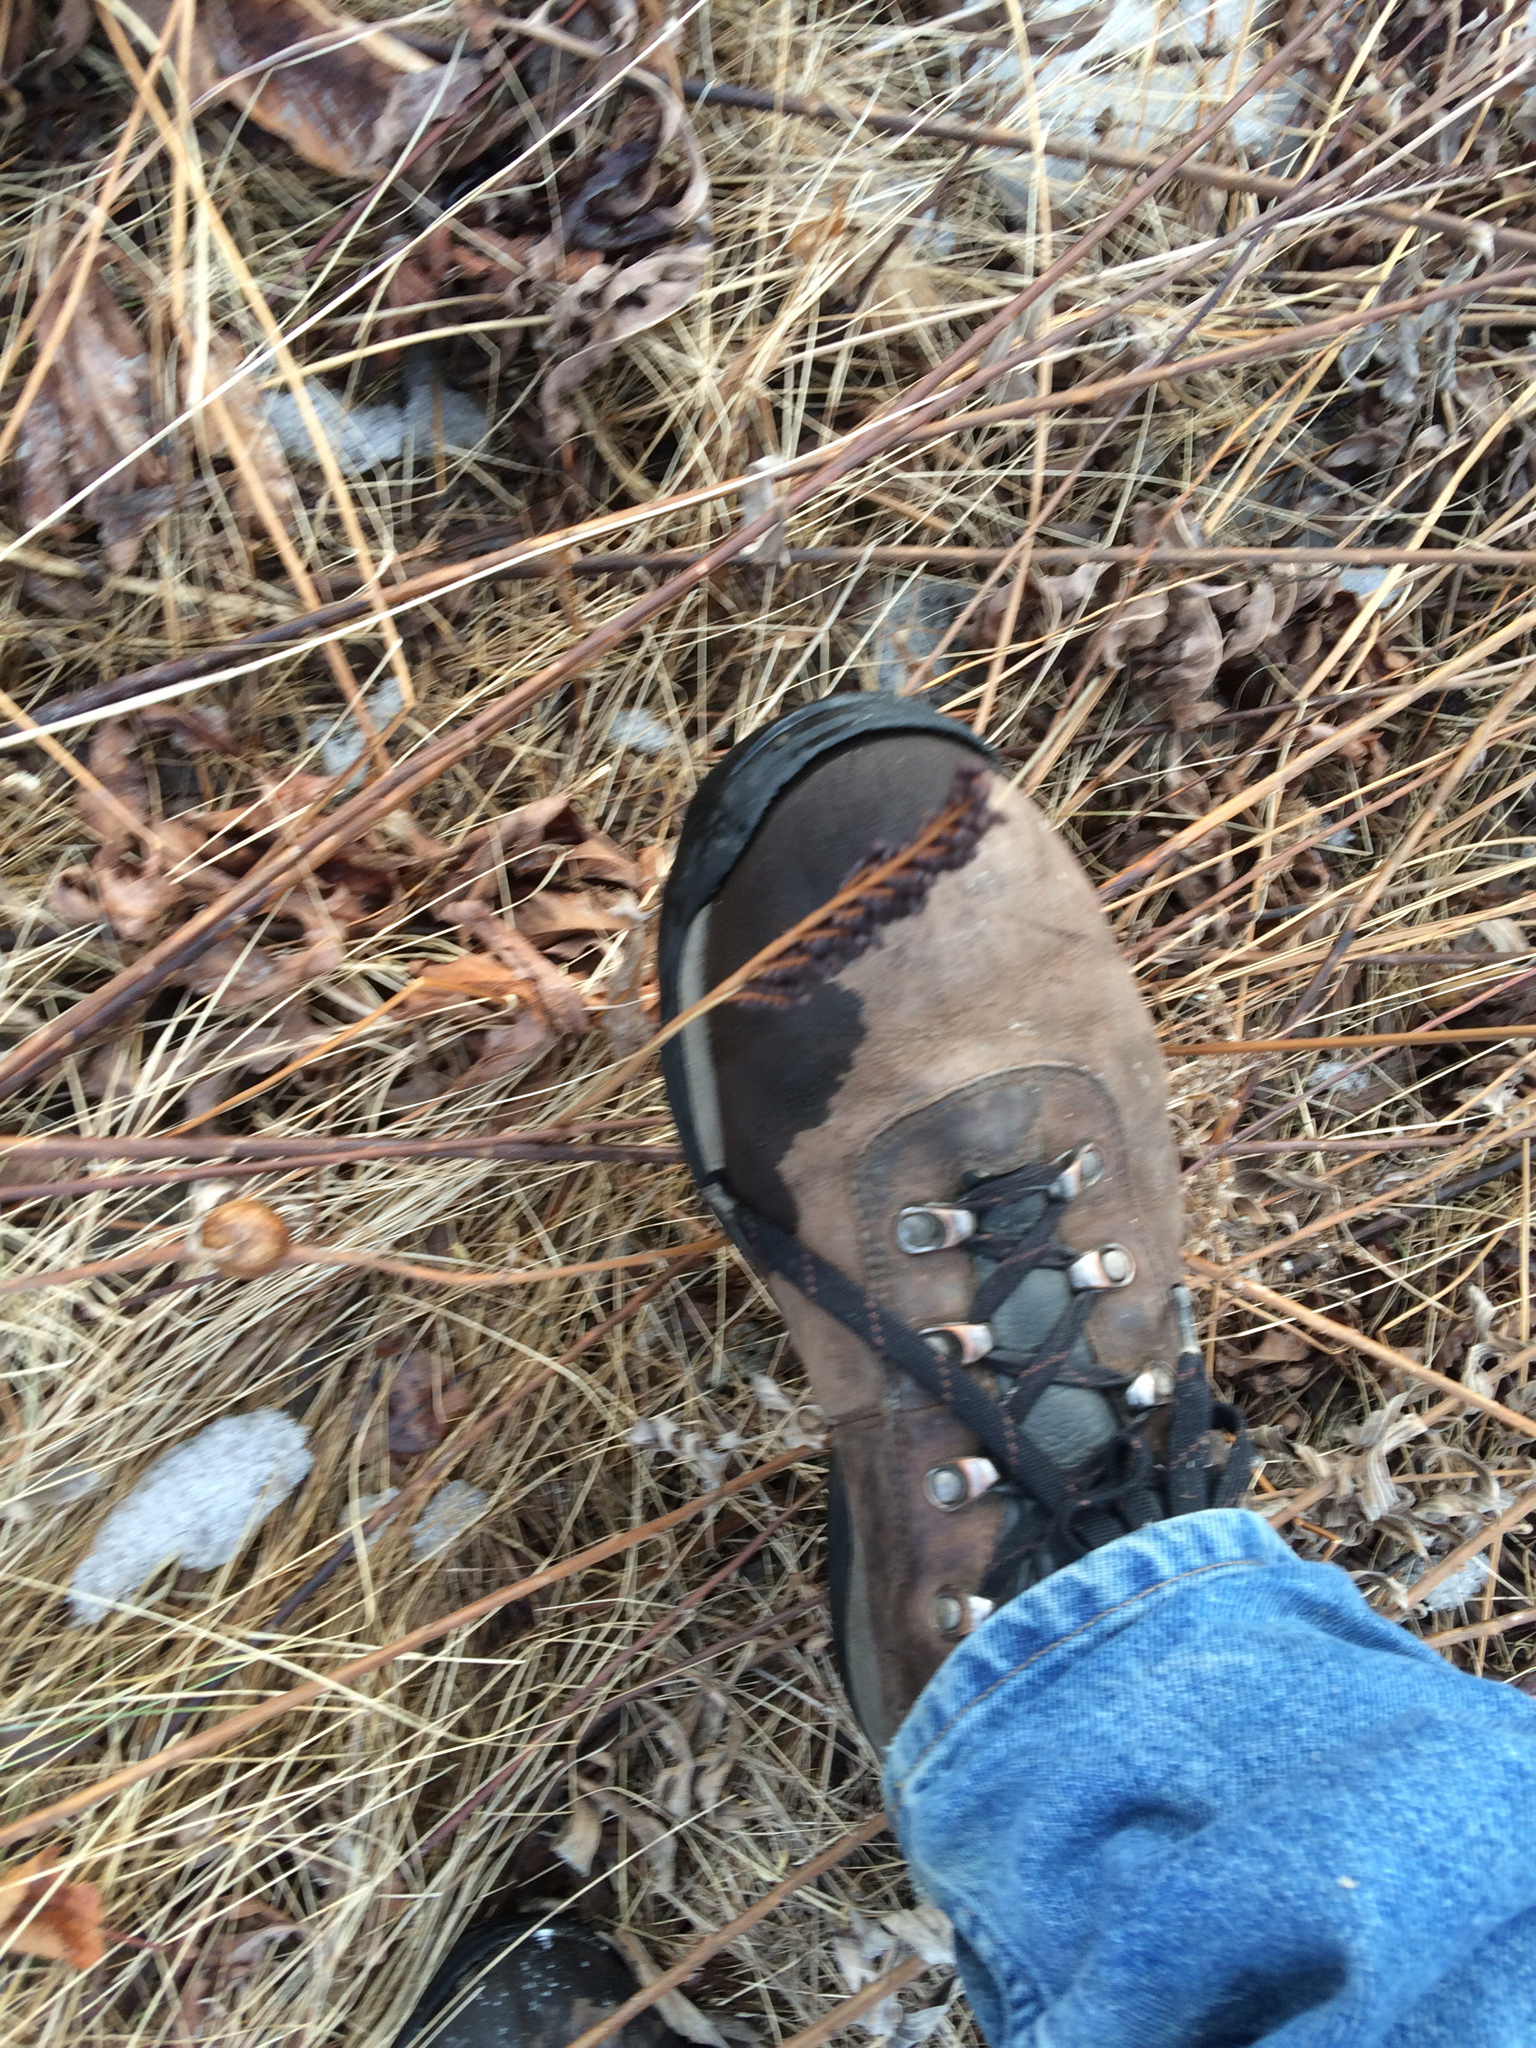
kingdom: Plantae
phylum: Tracheophyta
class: Polypodiopsida
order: Polypodiales
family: Onocleaceae
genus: Onoclea
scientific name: Onoclea sensibilis
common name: Sensitive fern
